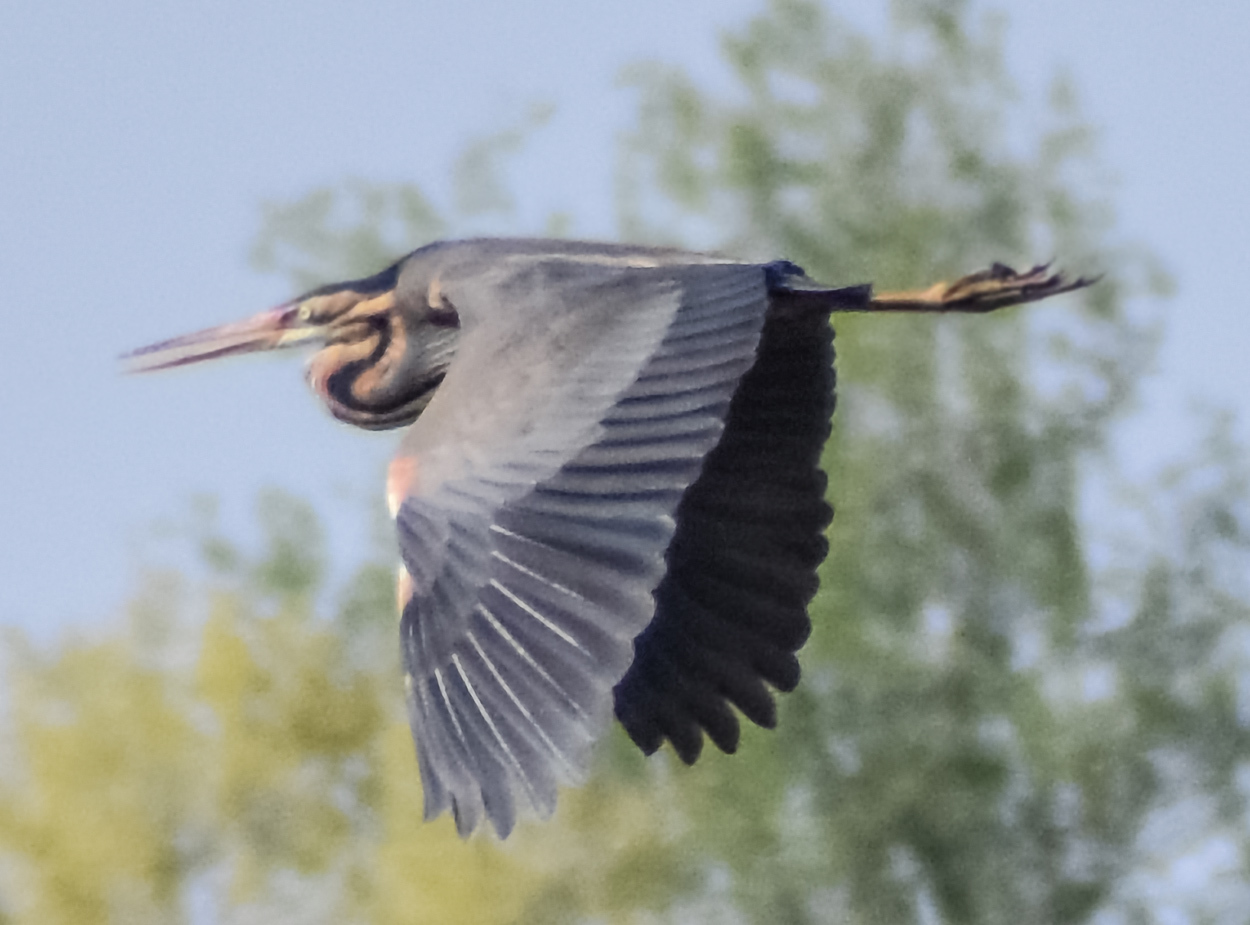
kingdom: Animalia
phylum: Chordata
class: Aves
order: Pelecaniformes
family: Ardeidae
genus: Ardea
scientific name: Ardea purpurea
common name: Purple heron
